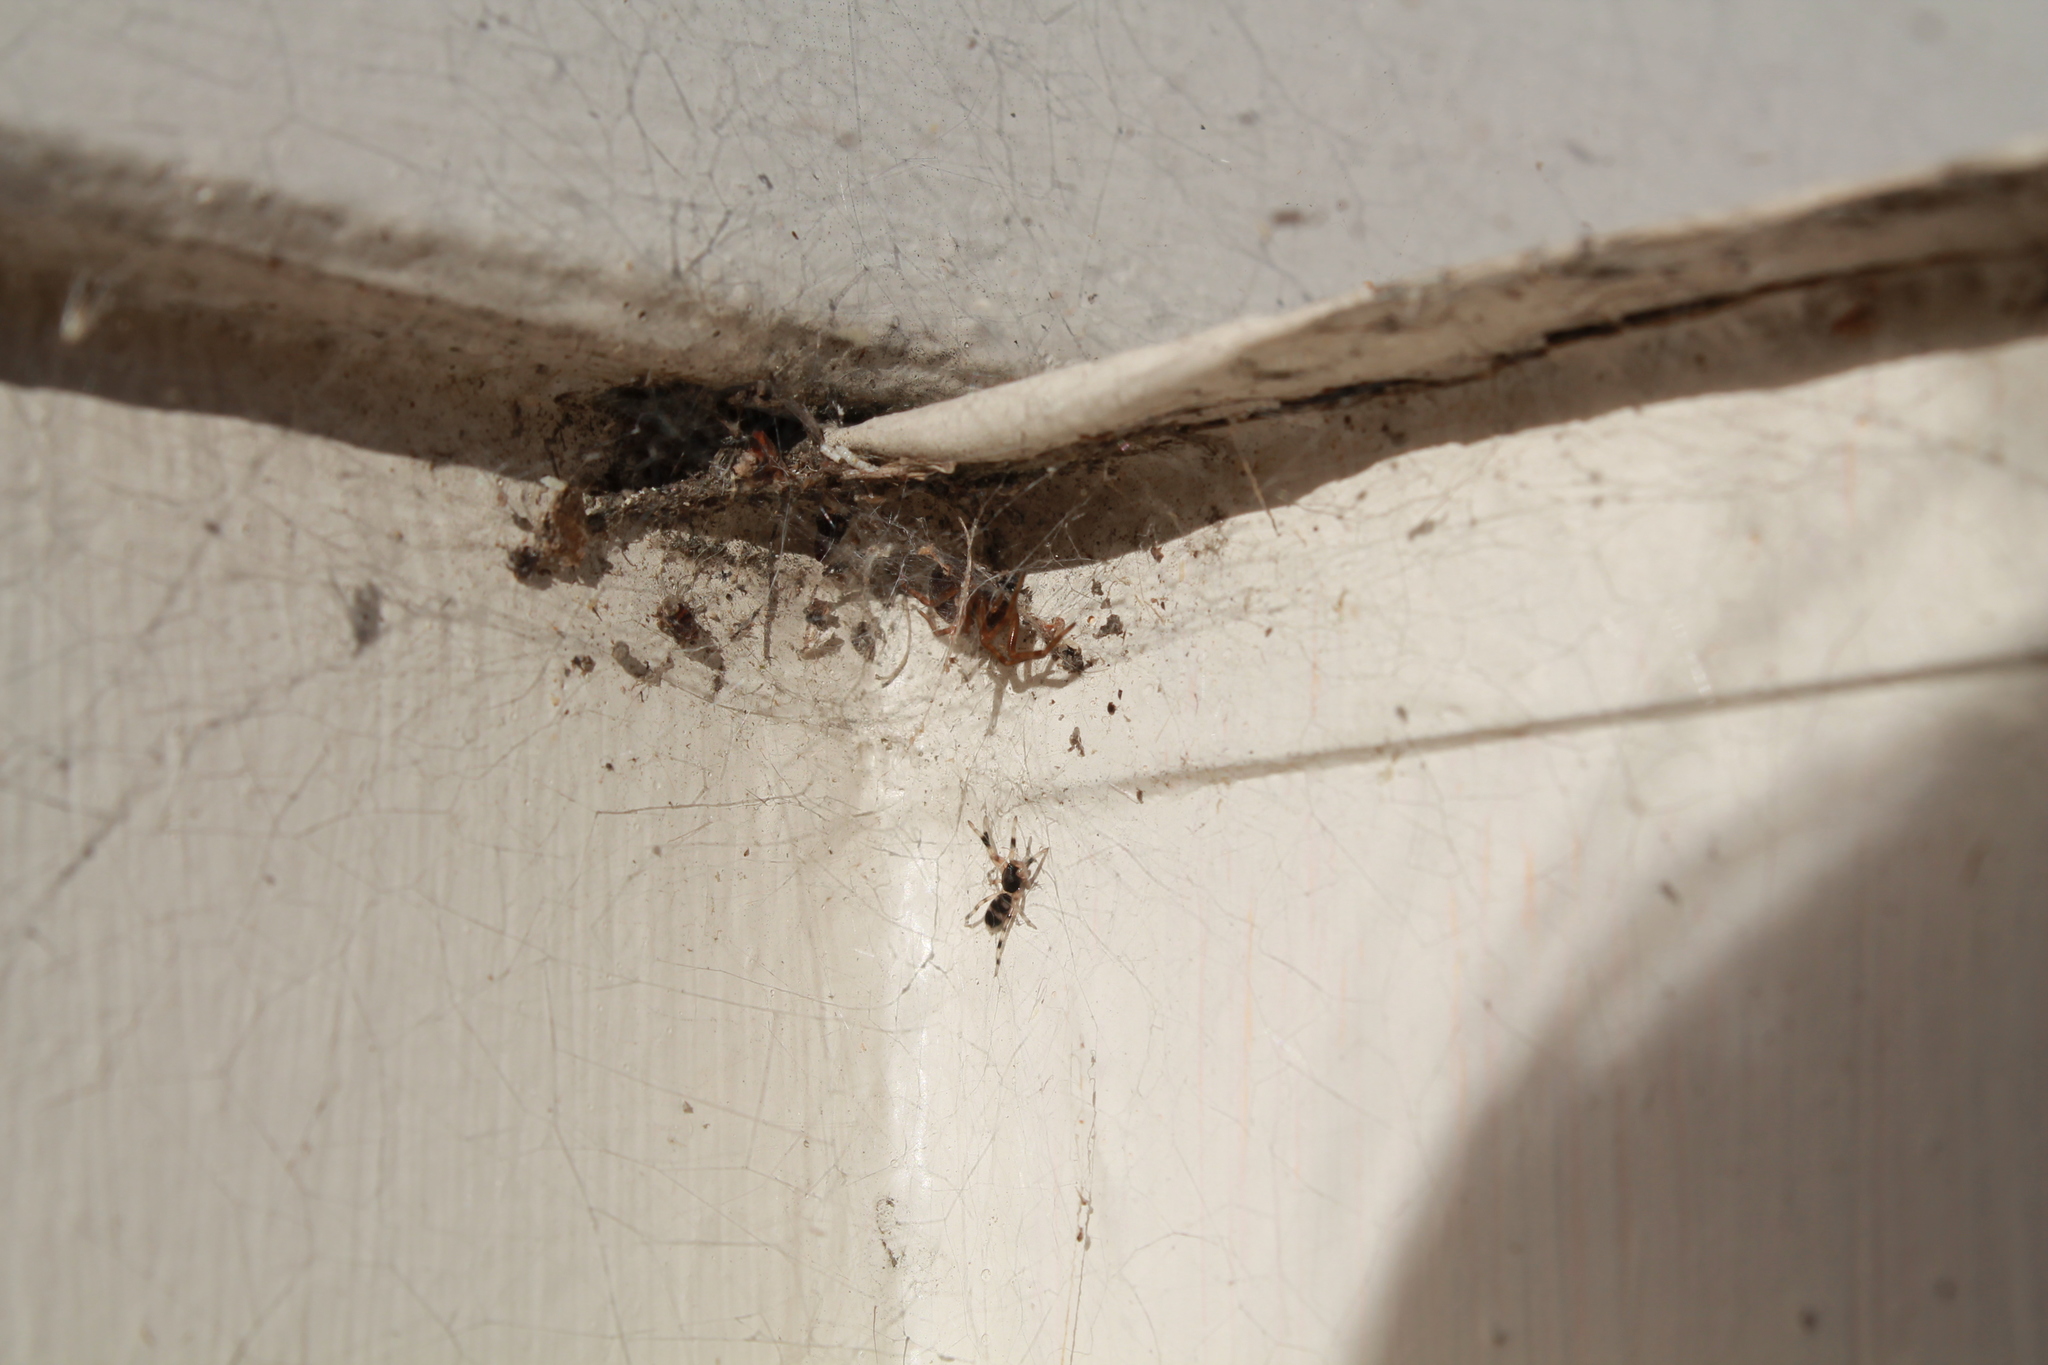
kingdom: Animalia
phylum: Arthropoda
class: Arachnida
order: Araneae
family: Lamponidae
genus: Lampona
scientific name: Lampona murina
